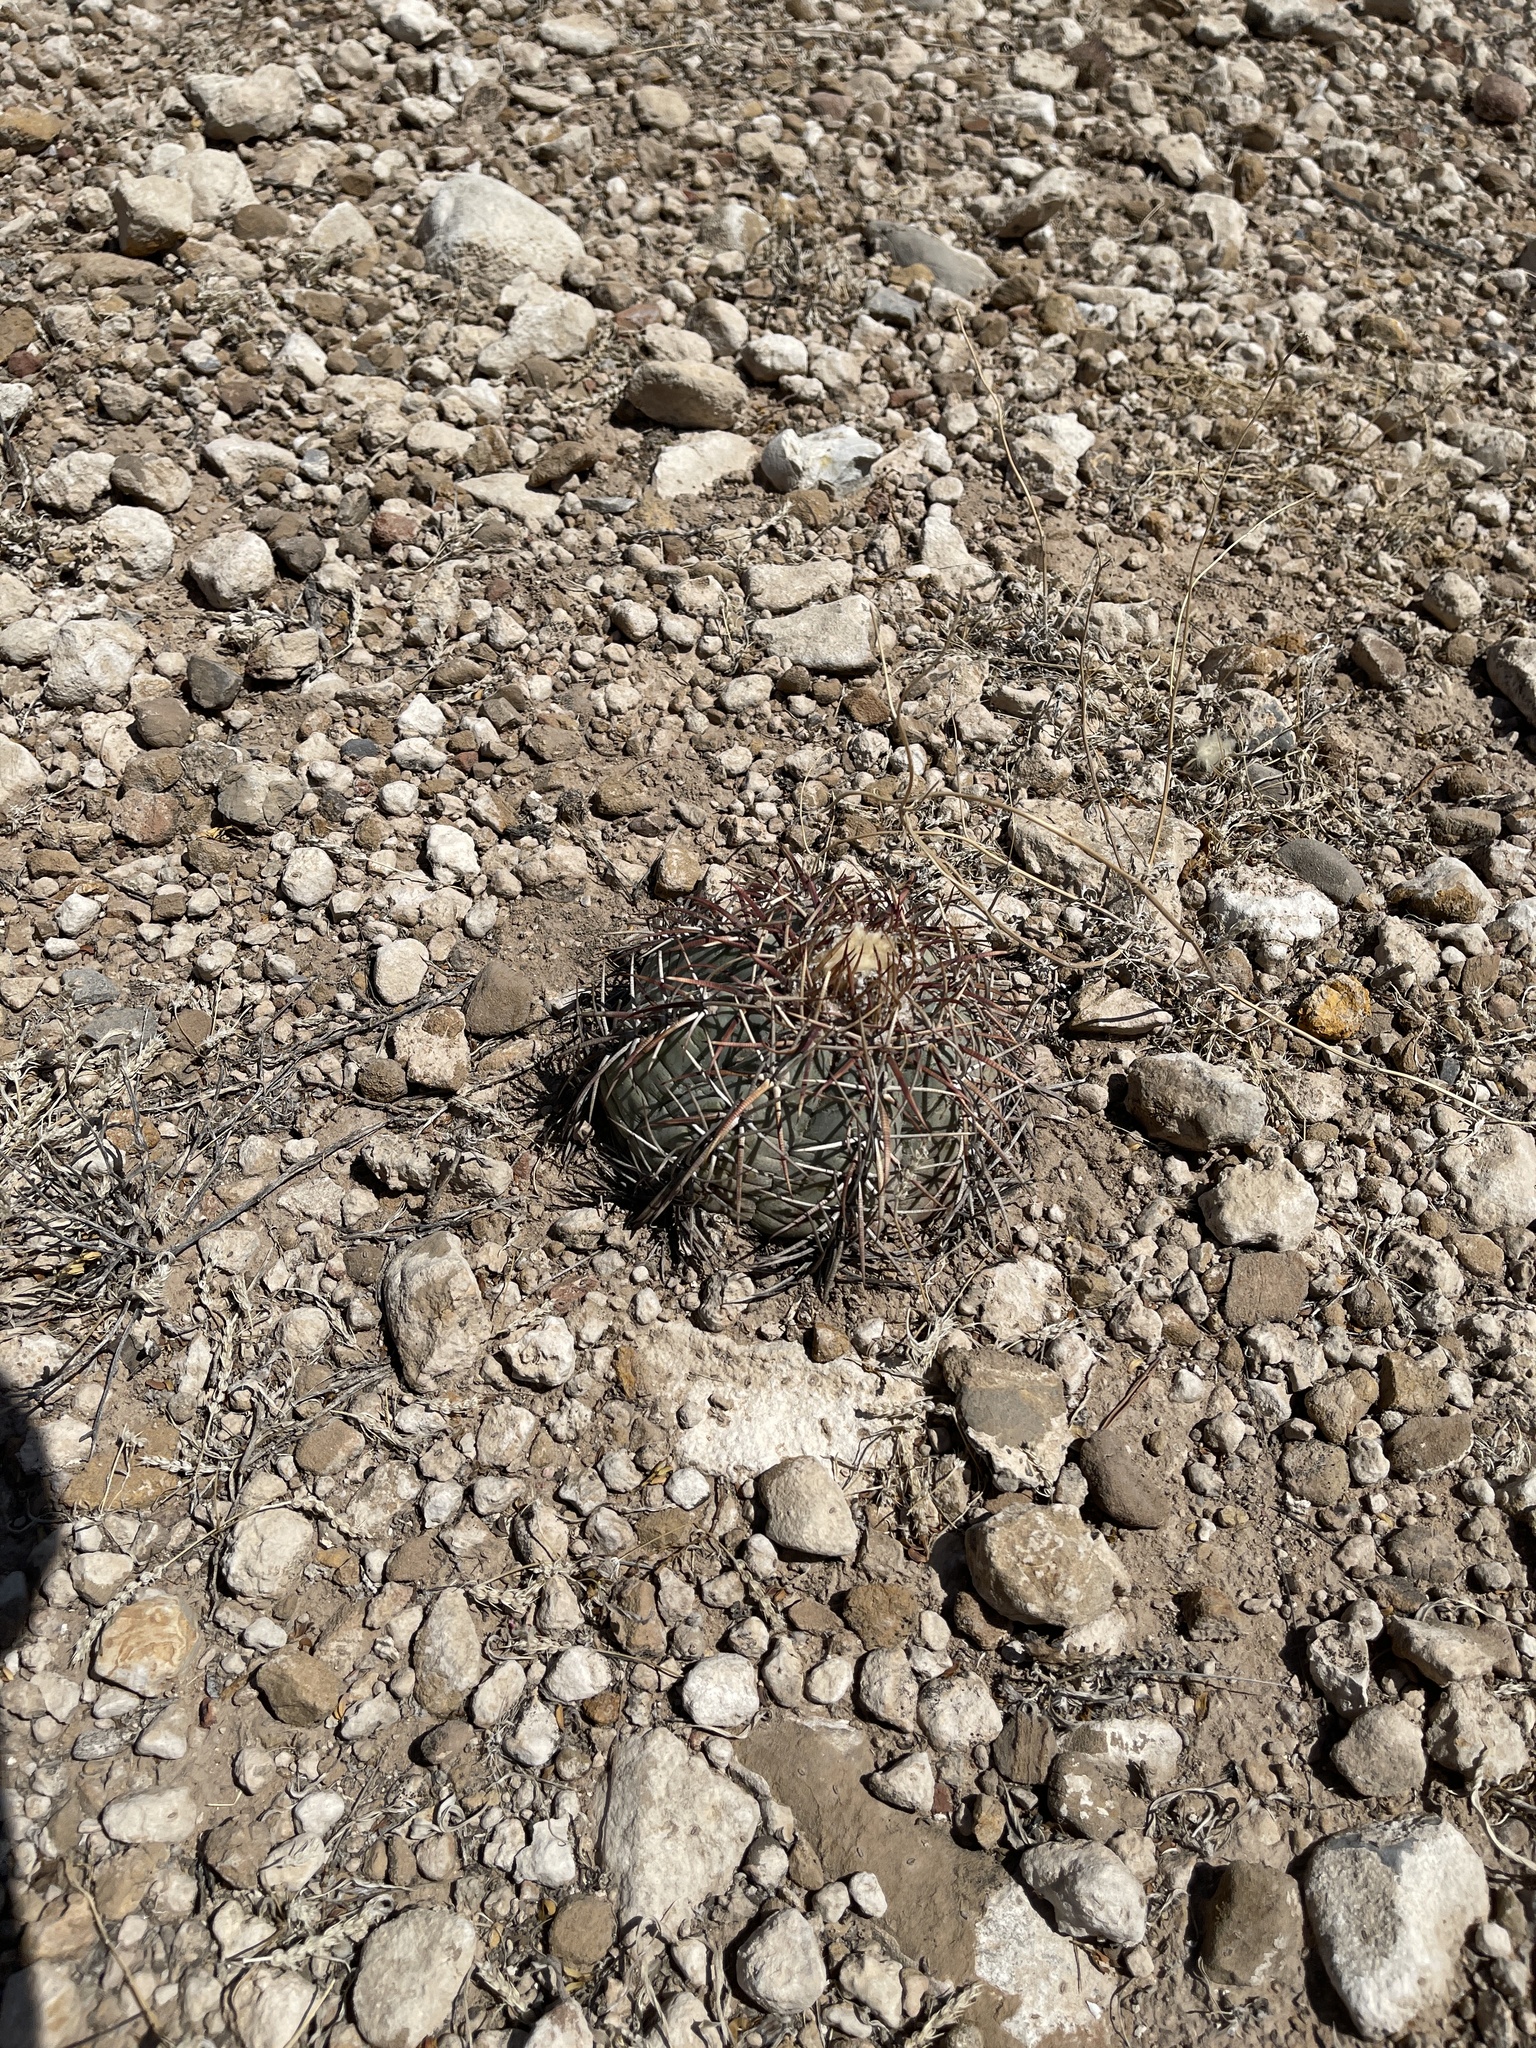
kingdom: Plantae
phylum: Tracheophyta
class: Magnoliopsida
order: Caryophyllales
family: Cactaceae
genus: Echinocactus
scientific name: Echinocactus horizonthalonius
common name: Devilshead
